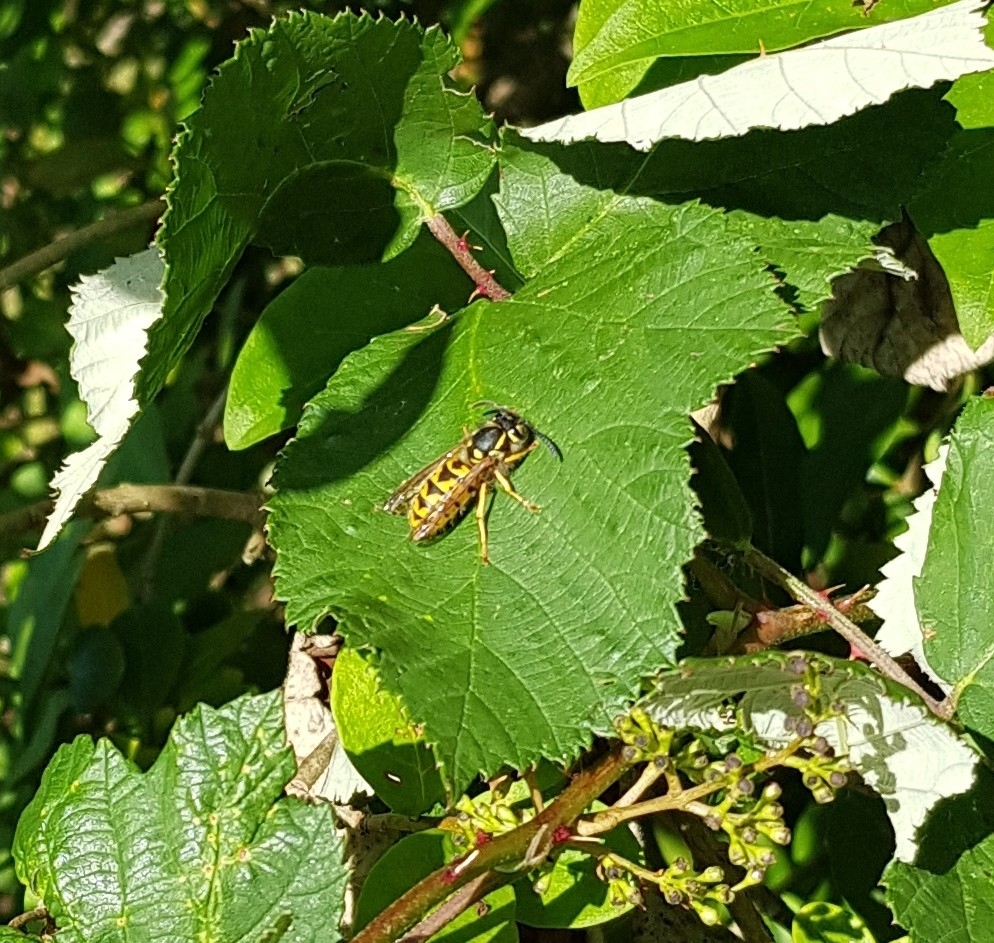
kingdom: Animalia
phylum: Arthropoda
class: Insecta
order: Hymenoptera
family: Vespidae
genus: Vespula
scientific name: Vespula vulgaris
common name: Common wasp
